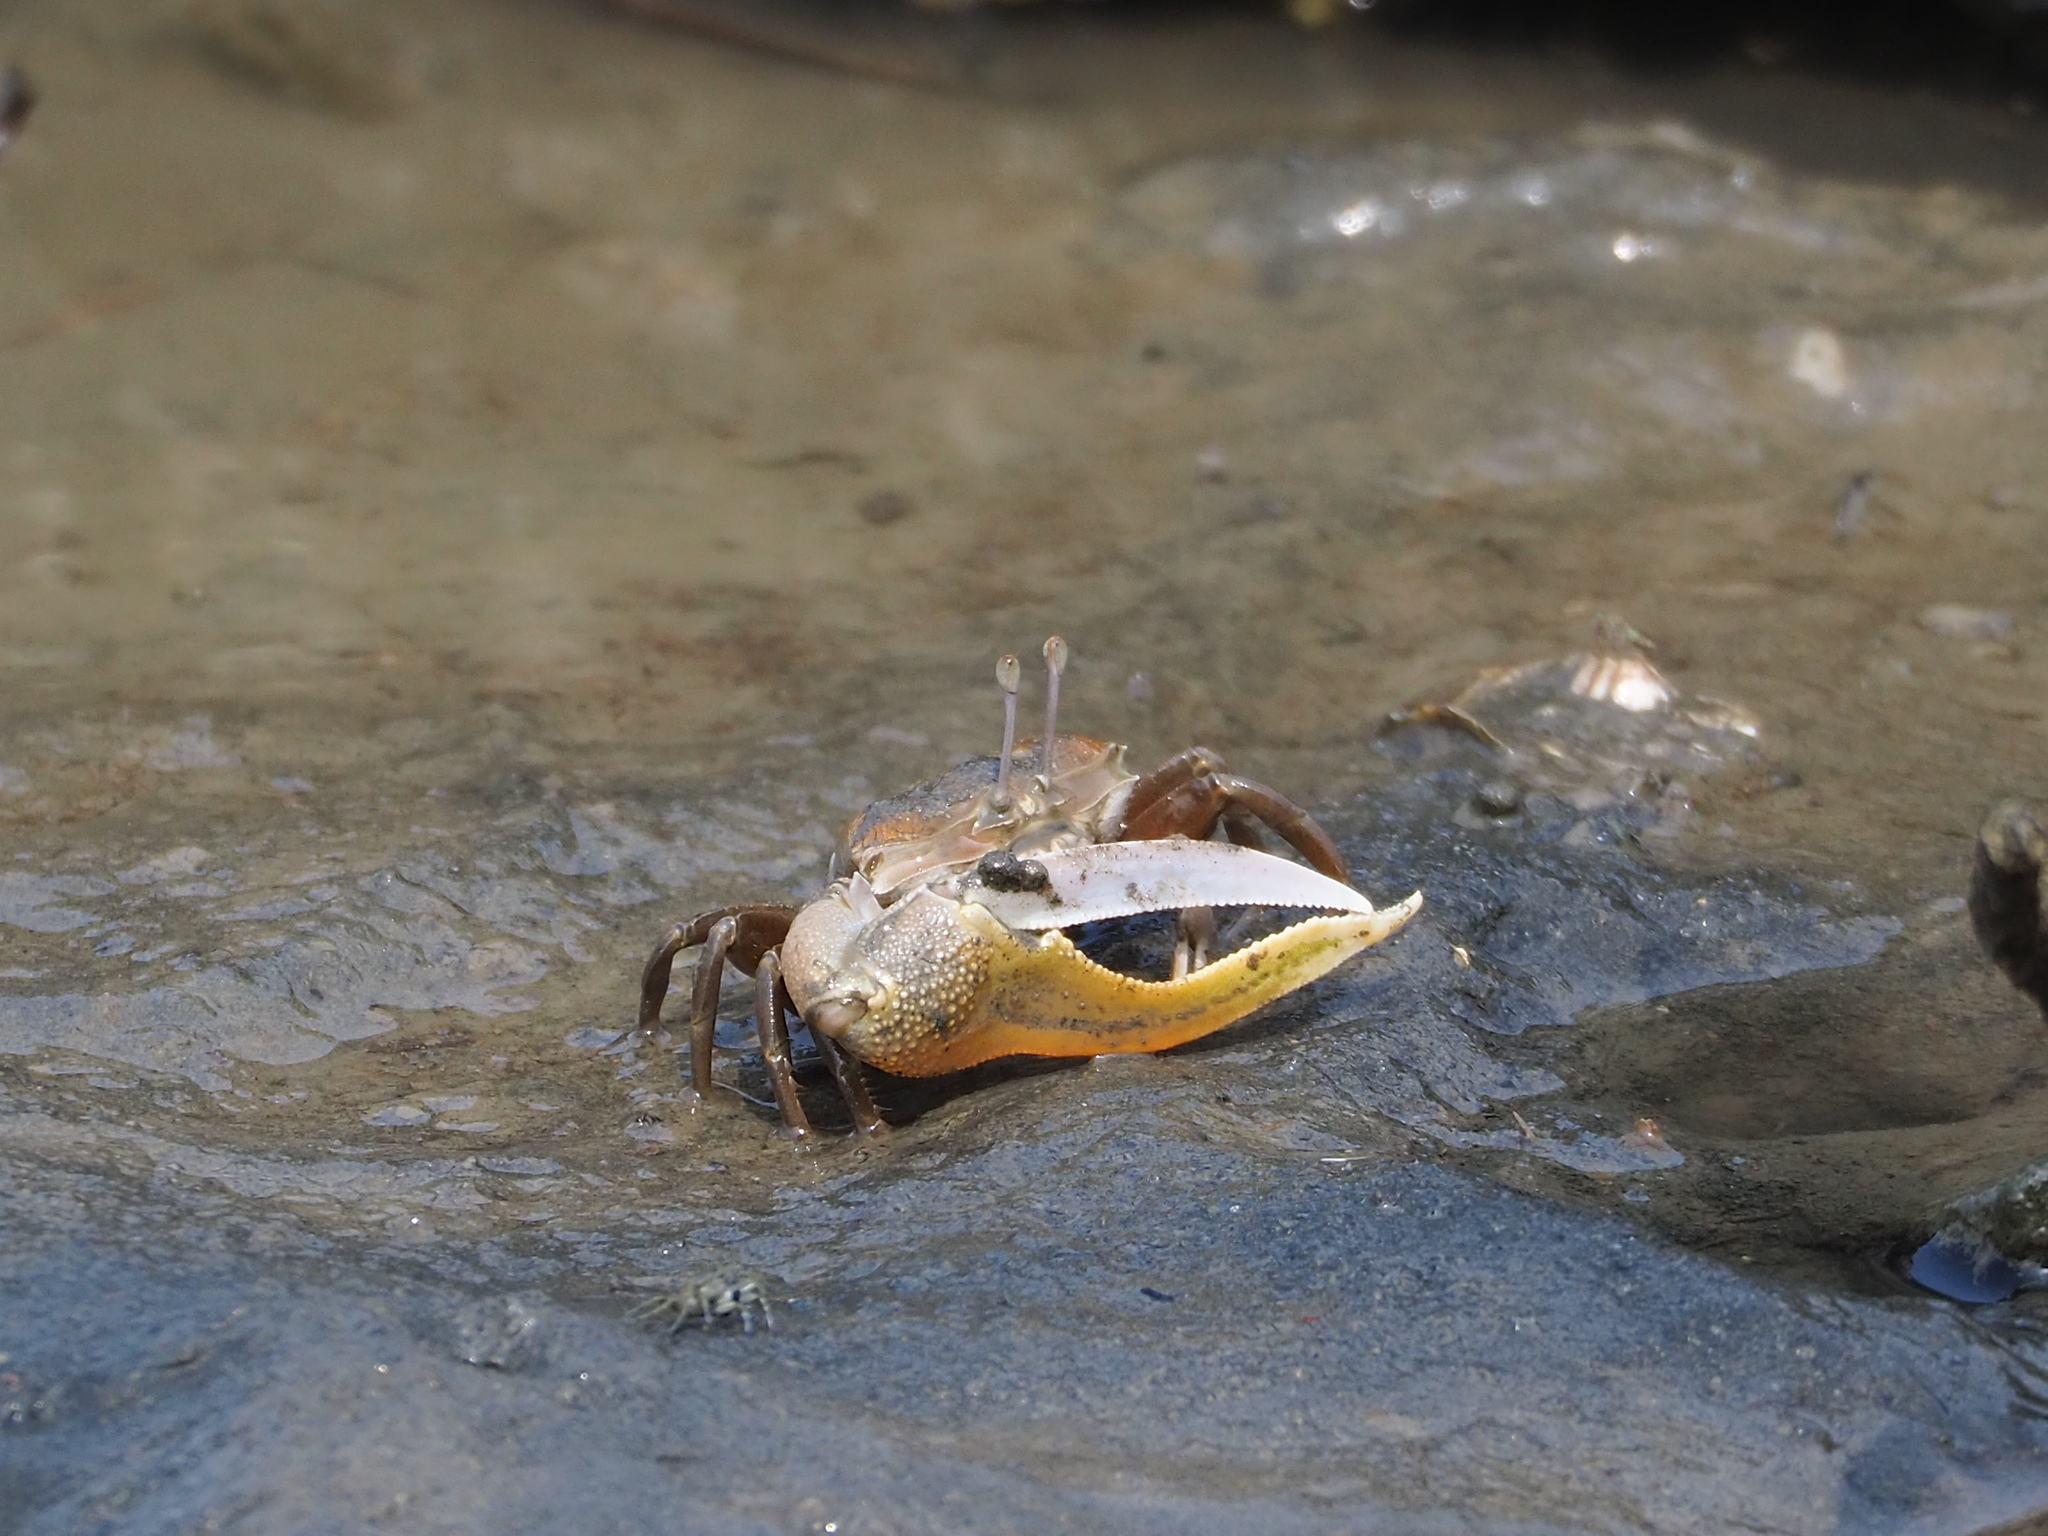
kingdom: Animalia
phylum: Arthropoda
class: Malacostraca
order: Decapoda
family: Ocypodidae
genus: Gelasimus
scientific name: Gelasimus borealis
